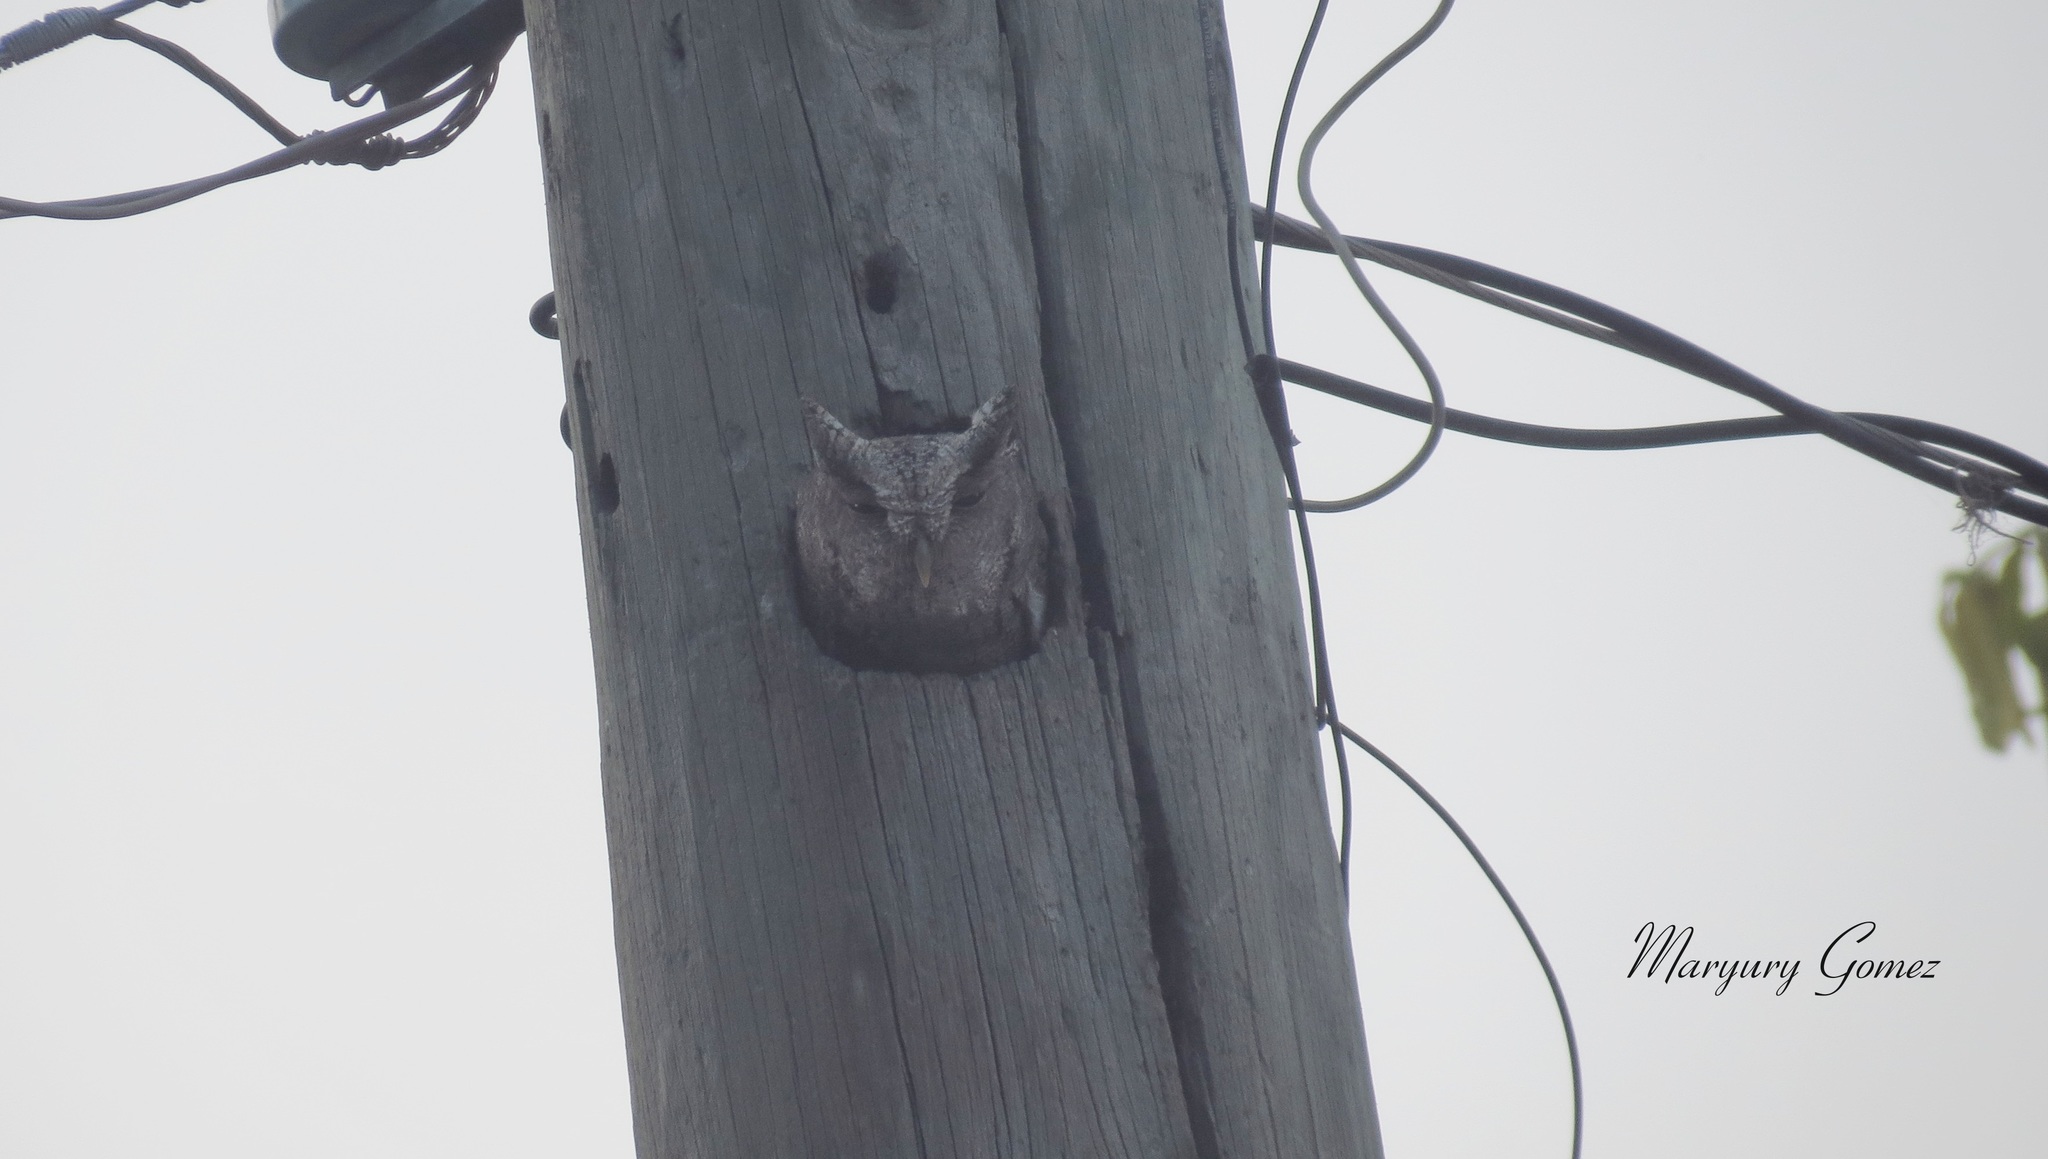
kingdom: Animalia
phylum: Chordata
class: Aves
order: Strigiformes
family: Strigidae
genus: Megascops
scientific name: Megascops cooperi
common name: Pacific screech-owl
